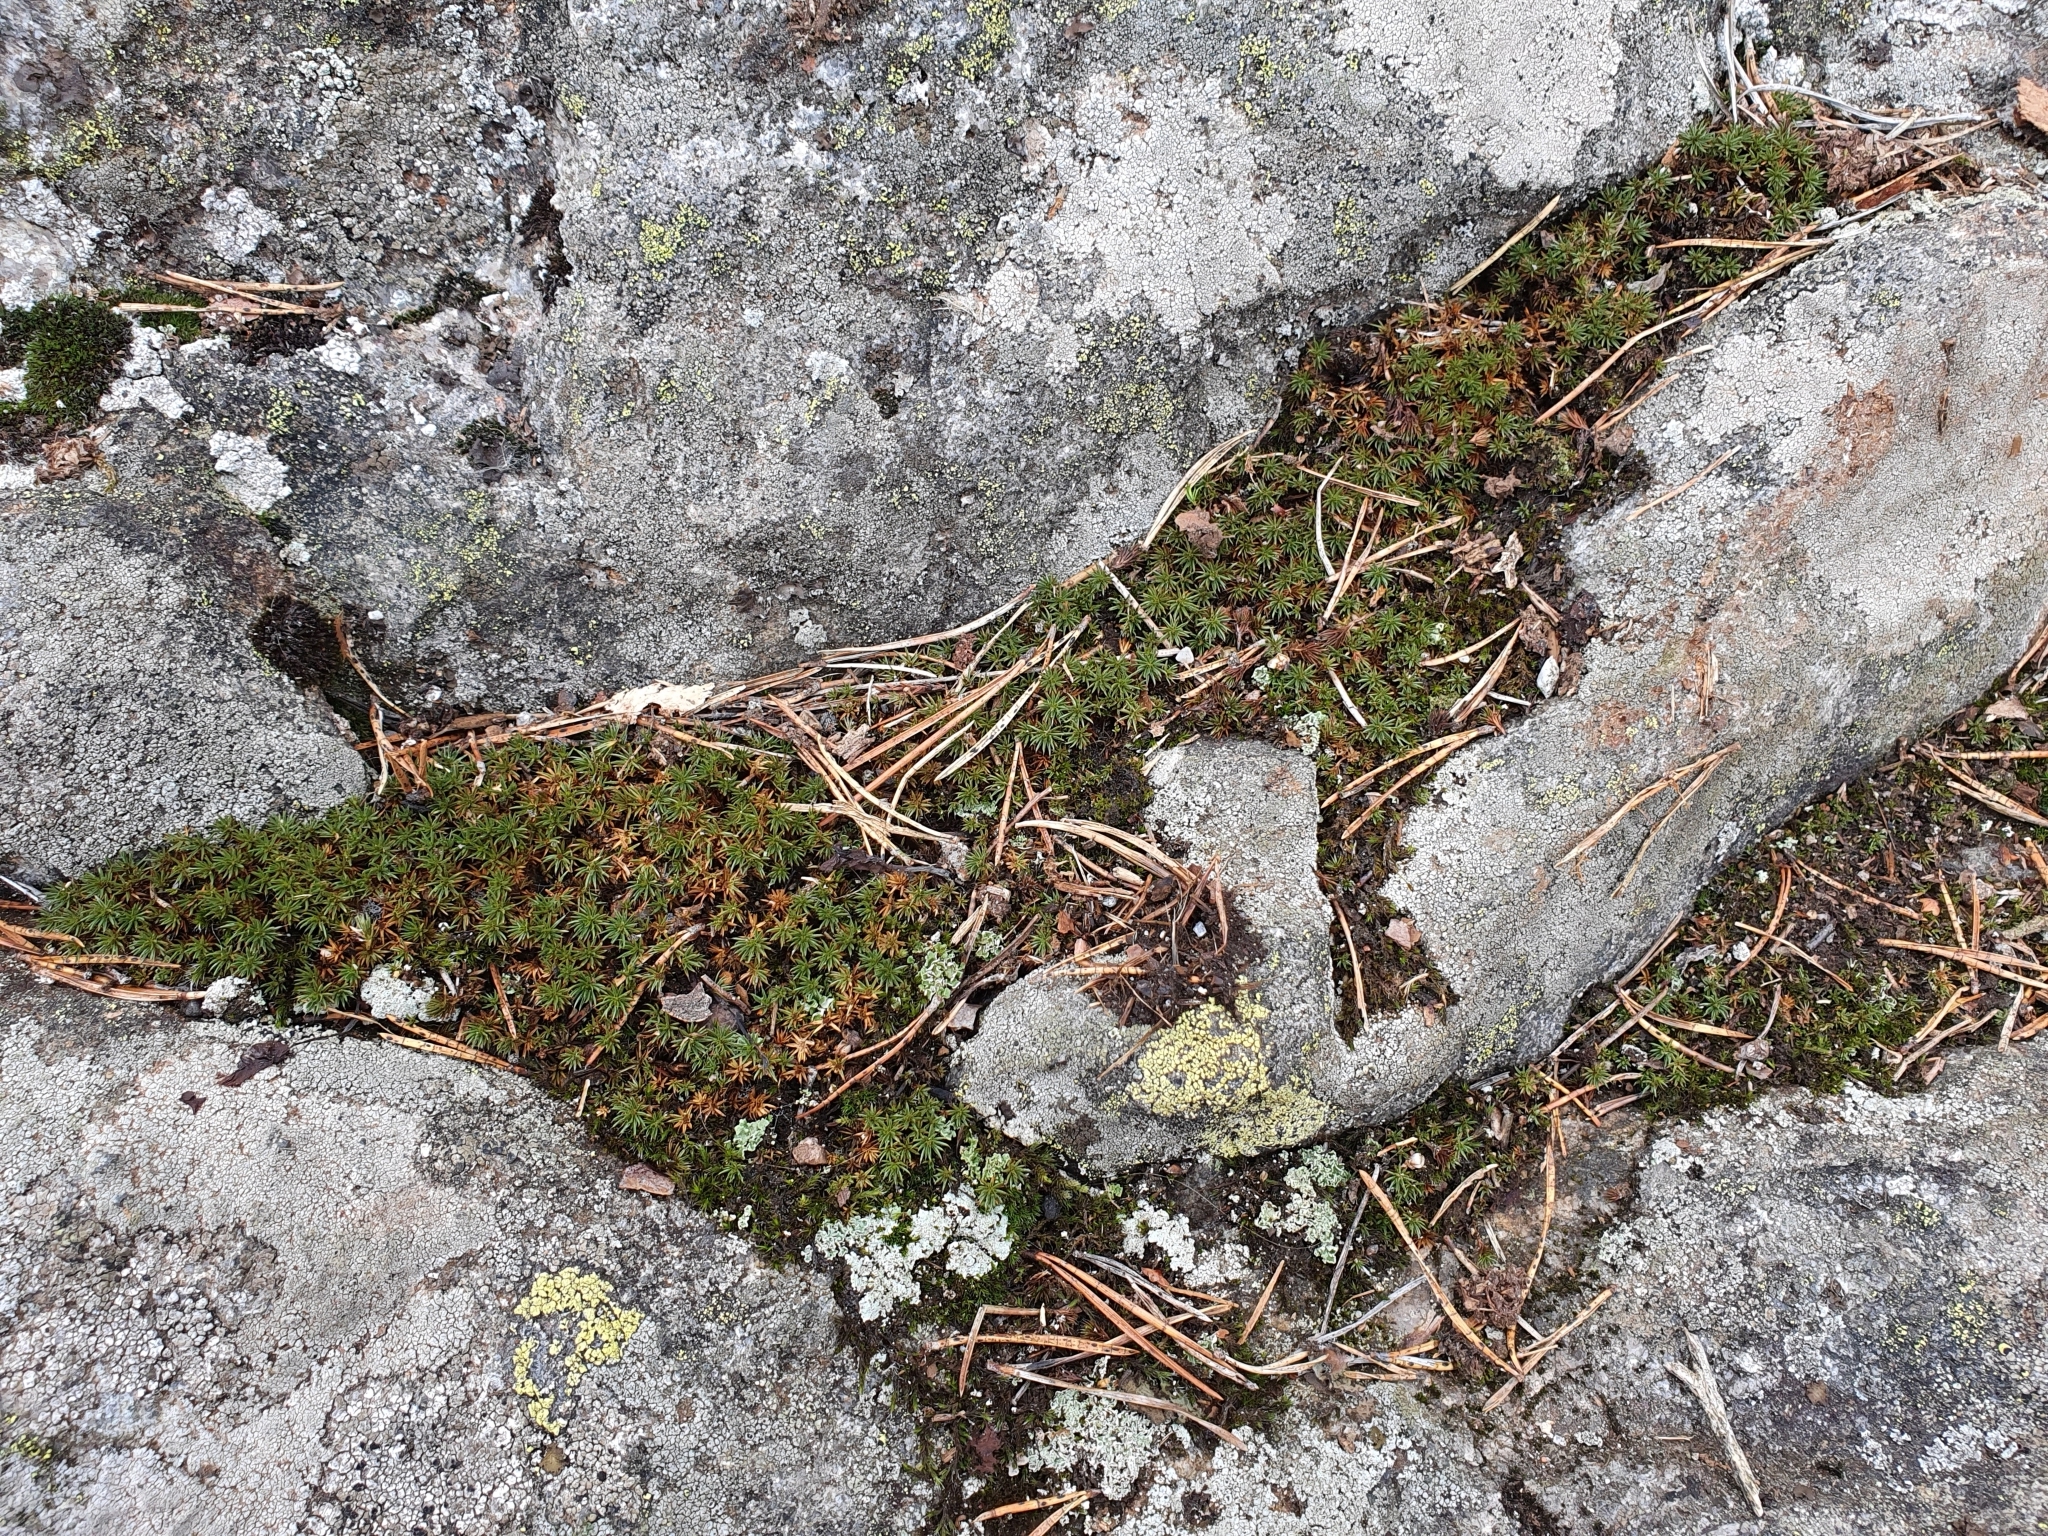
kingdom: Plantae
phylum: Bryophyta
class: Polytrichopsida
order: Polytrichales
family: Polytrichaceae
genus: Polytrichum
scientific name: Polytrichum piliferum
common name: Bristly haircap
